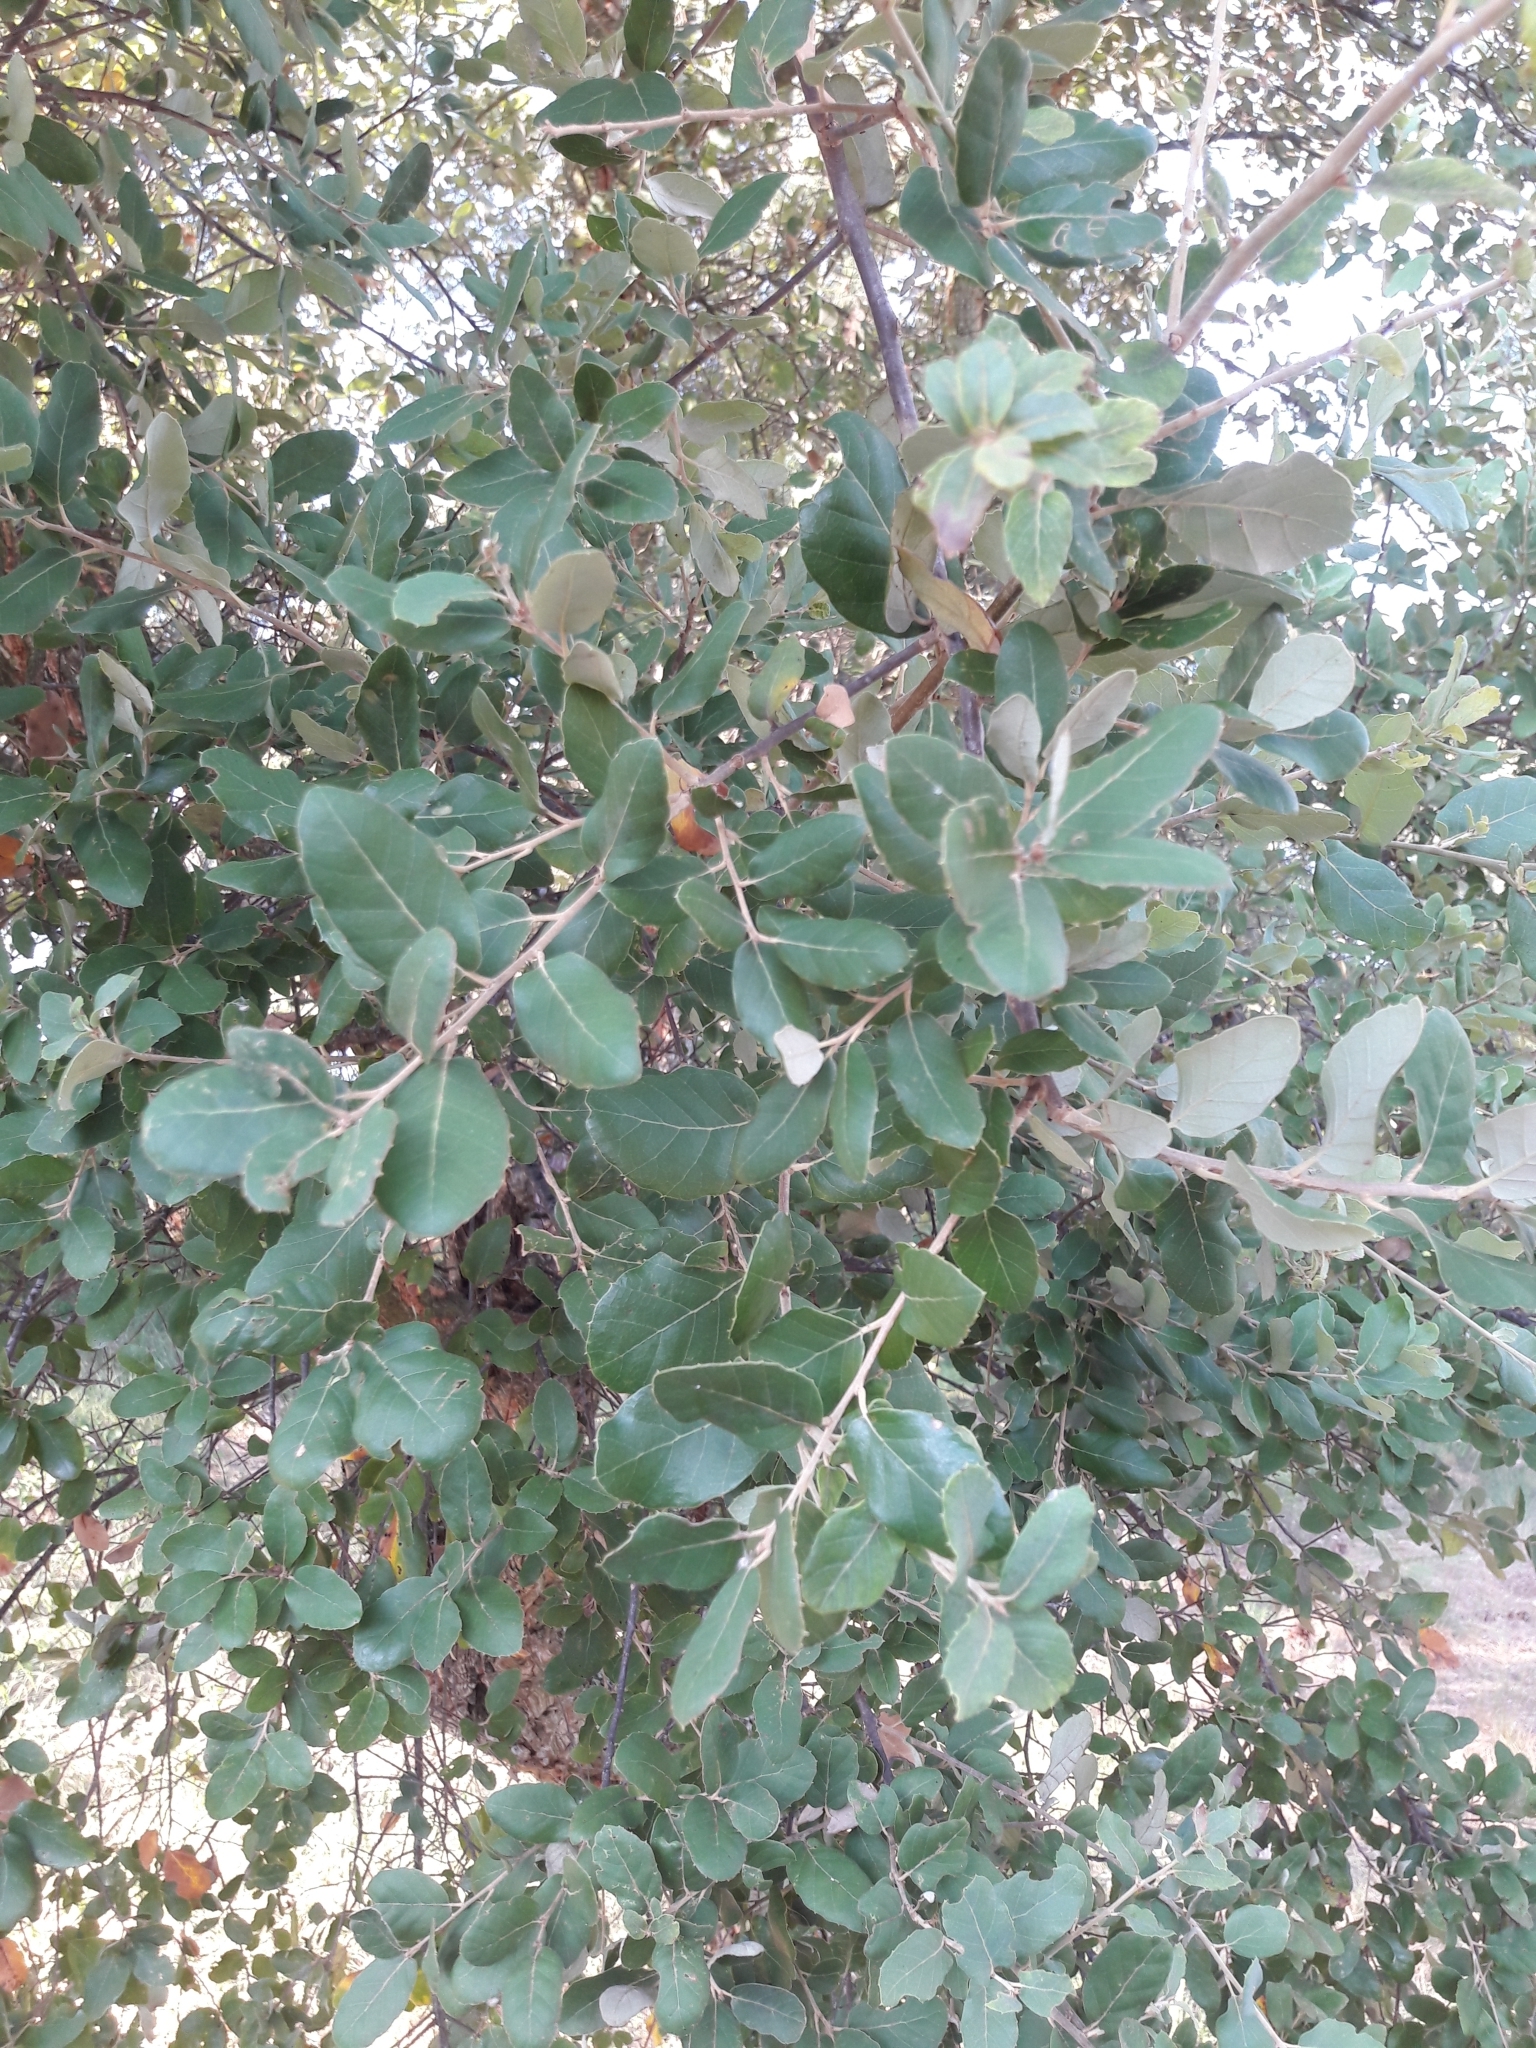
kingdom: Plantae
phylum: Tracheophyta
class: Magnoliopsida
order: Fagales
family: Fagaceae
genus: Quercus
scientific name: Quercus suber
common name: Cork oak
